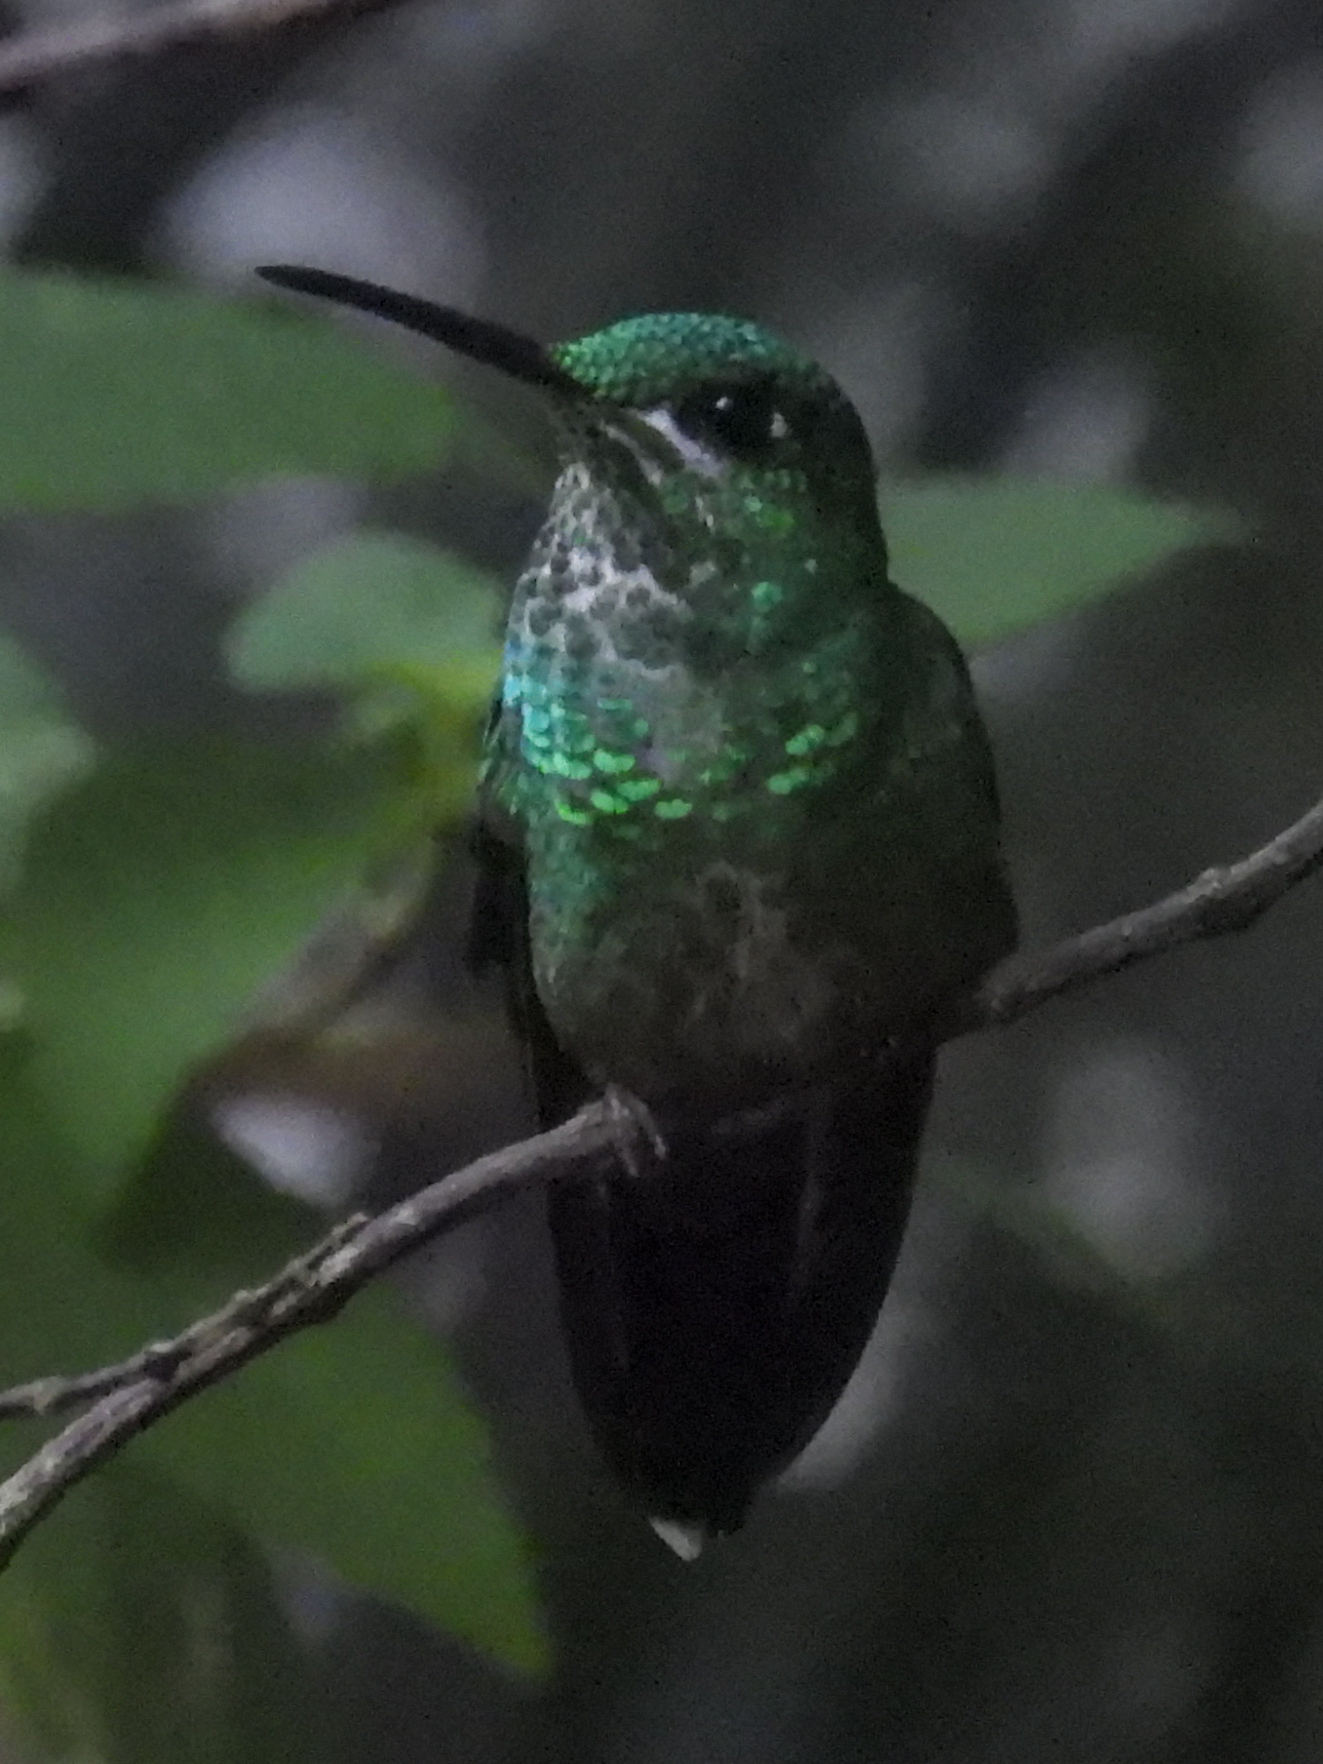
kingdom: Animalia
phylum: Chordata
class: Aves
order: Apodiformes
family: Trochilidae
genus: Heliodoxa
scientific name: Heliodoxa jacula
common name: Green-crowned brilliant
